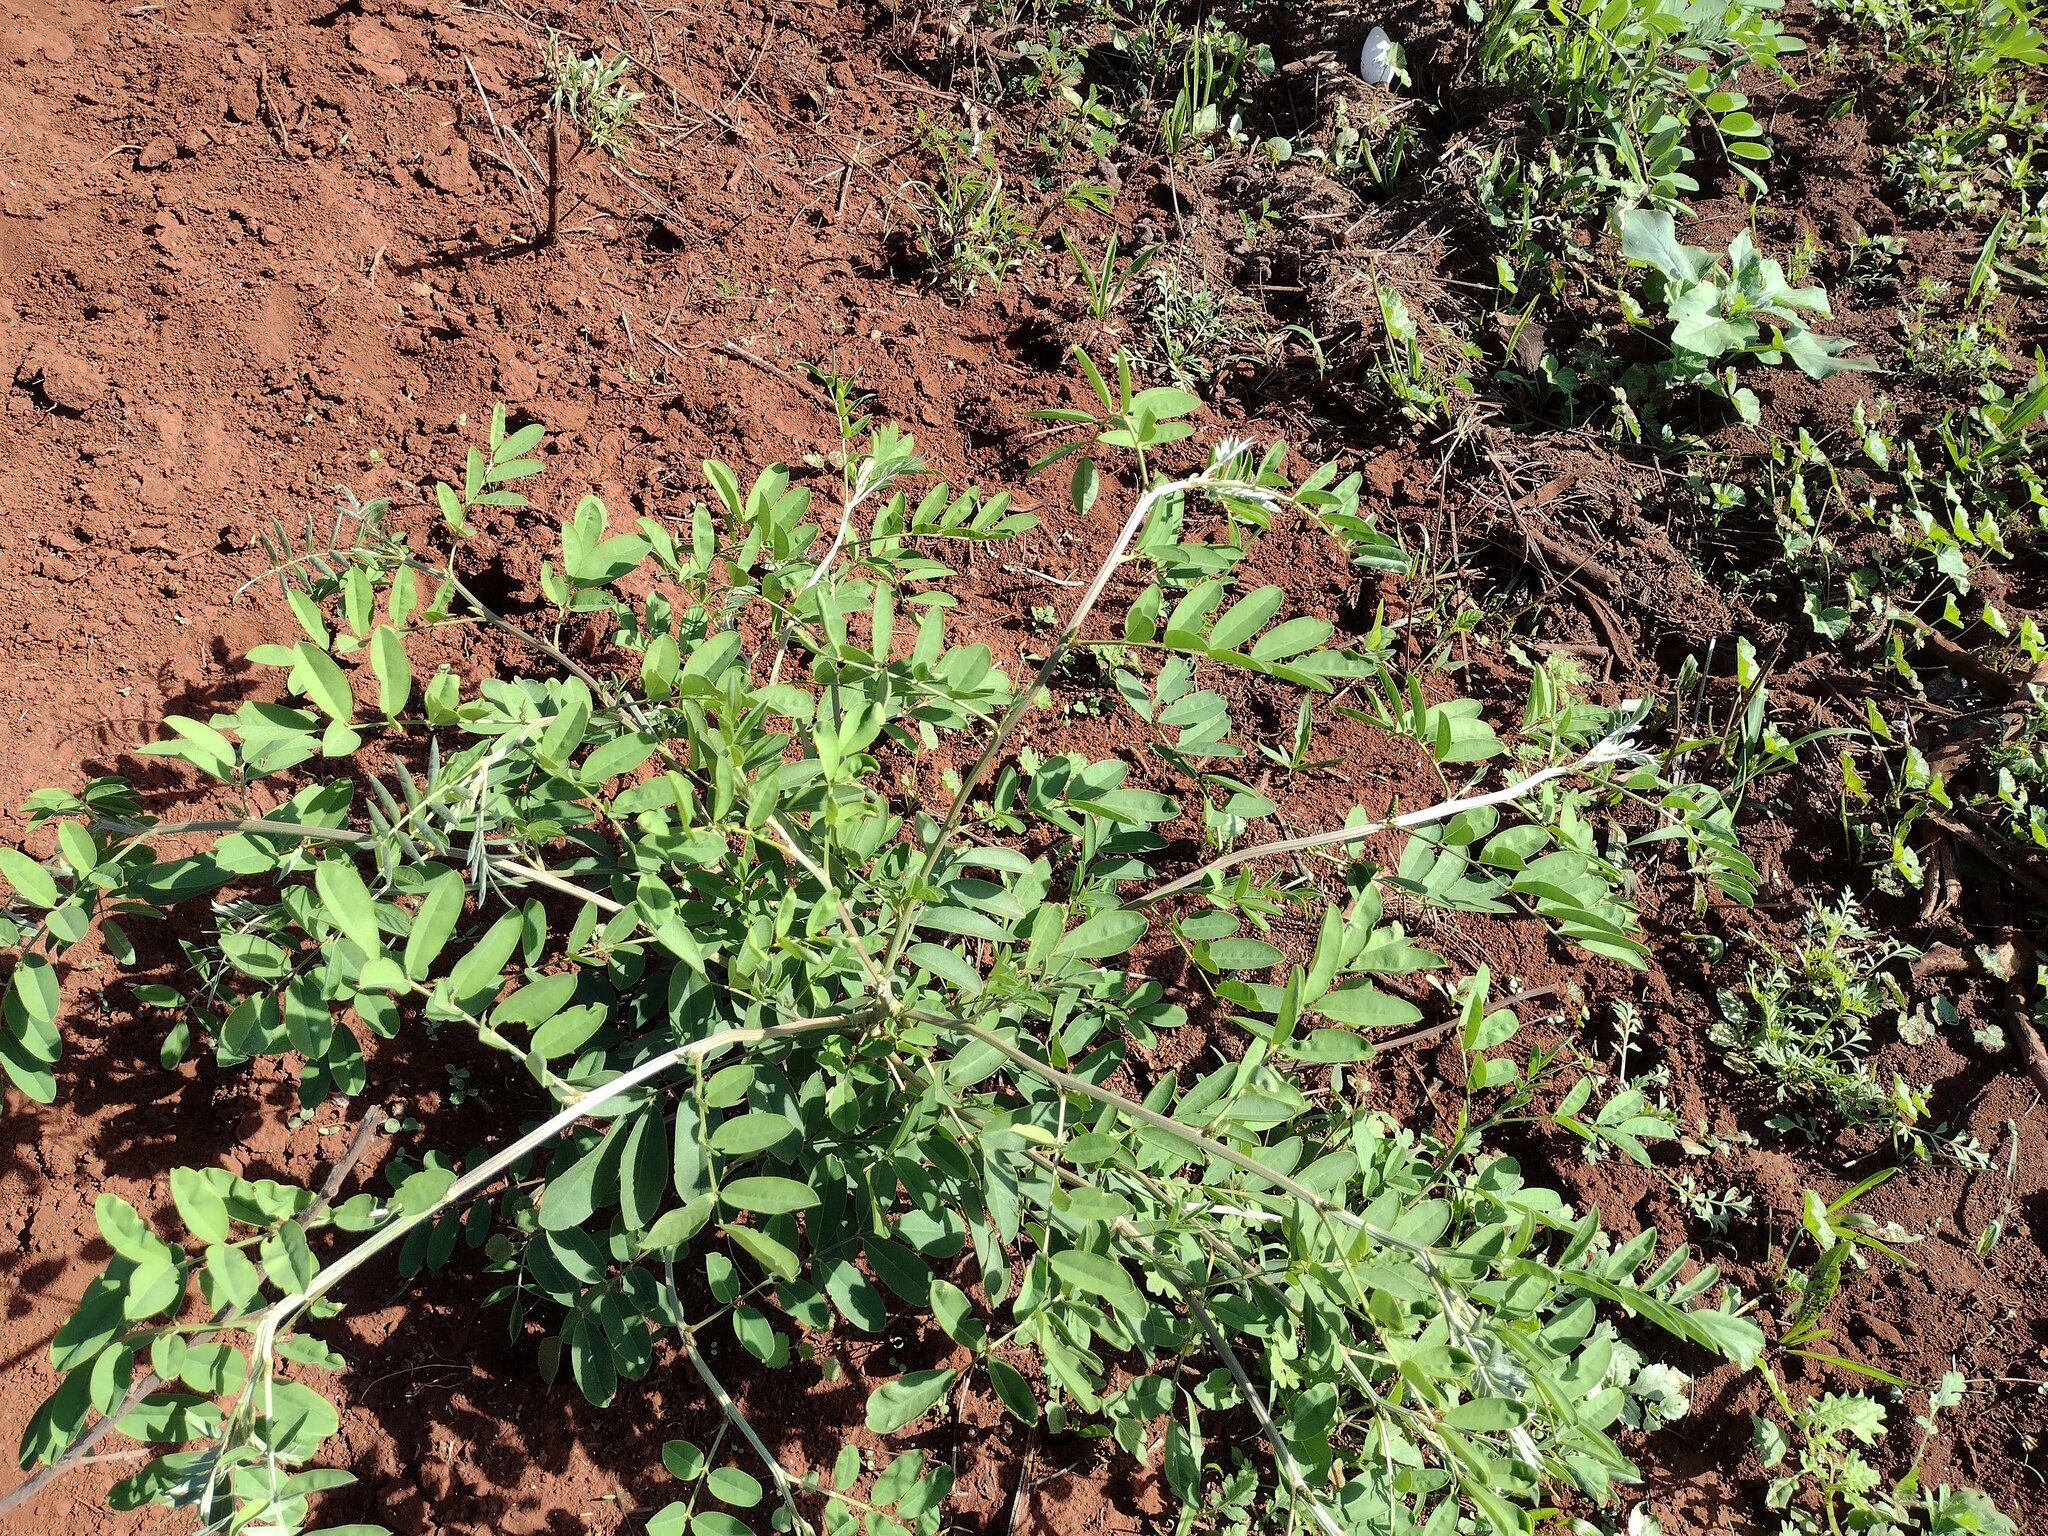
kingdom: Plantae
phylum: Tracheophyta
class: Magnoliopsida
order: Fabales
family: Fabaceae
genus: Indigofera
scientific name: Indigofera suffruticosa
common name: Anil de pasto
